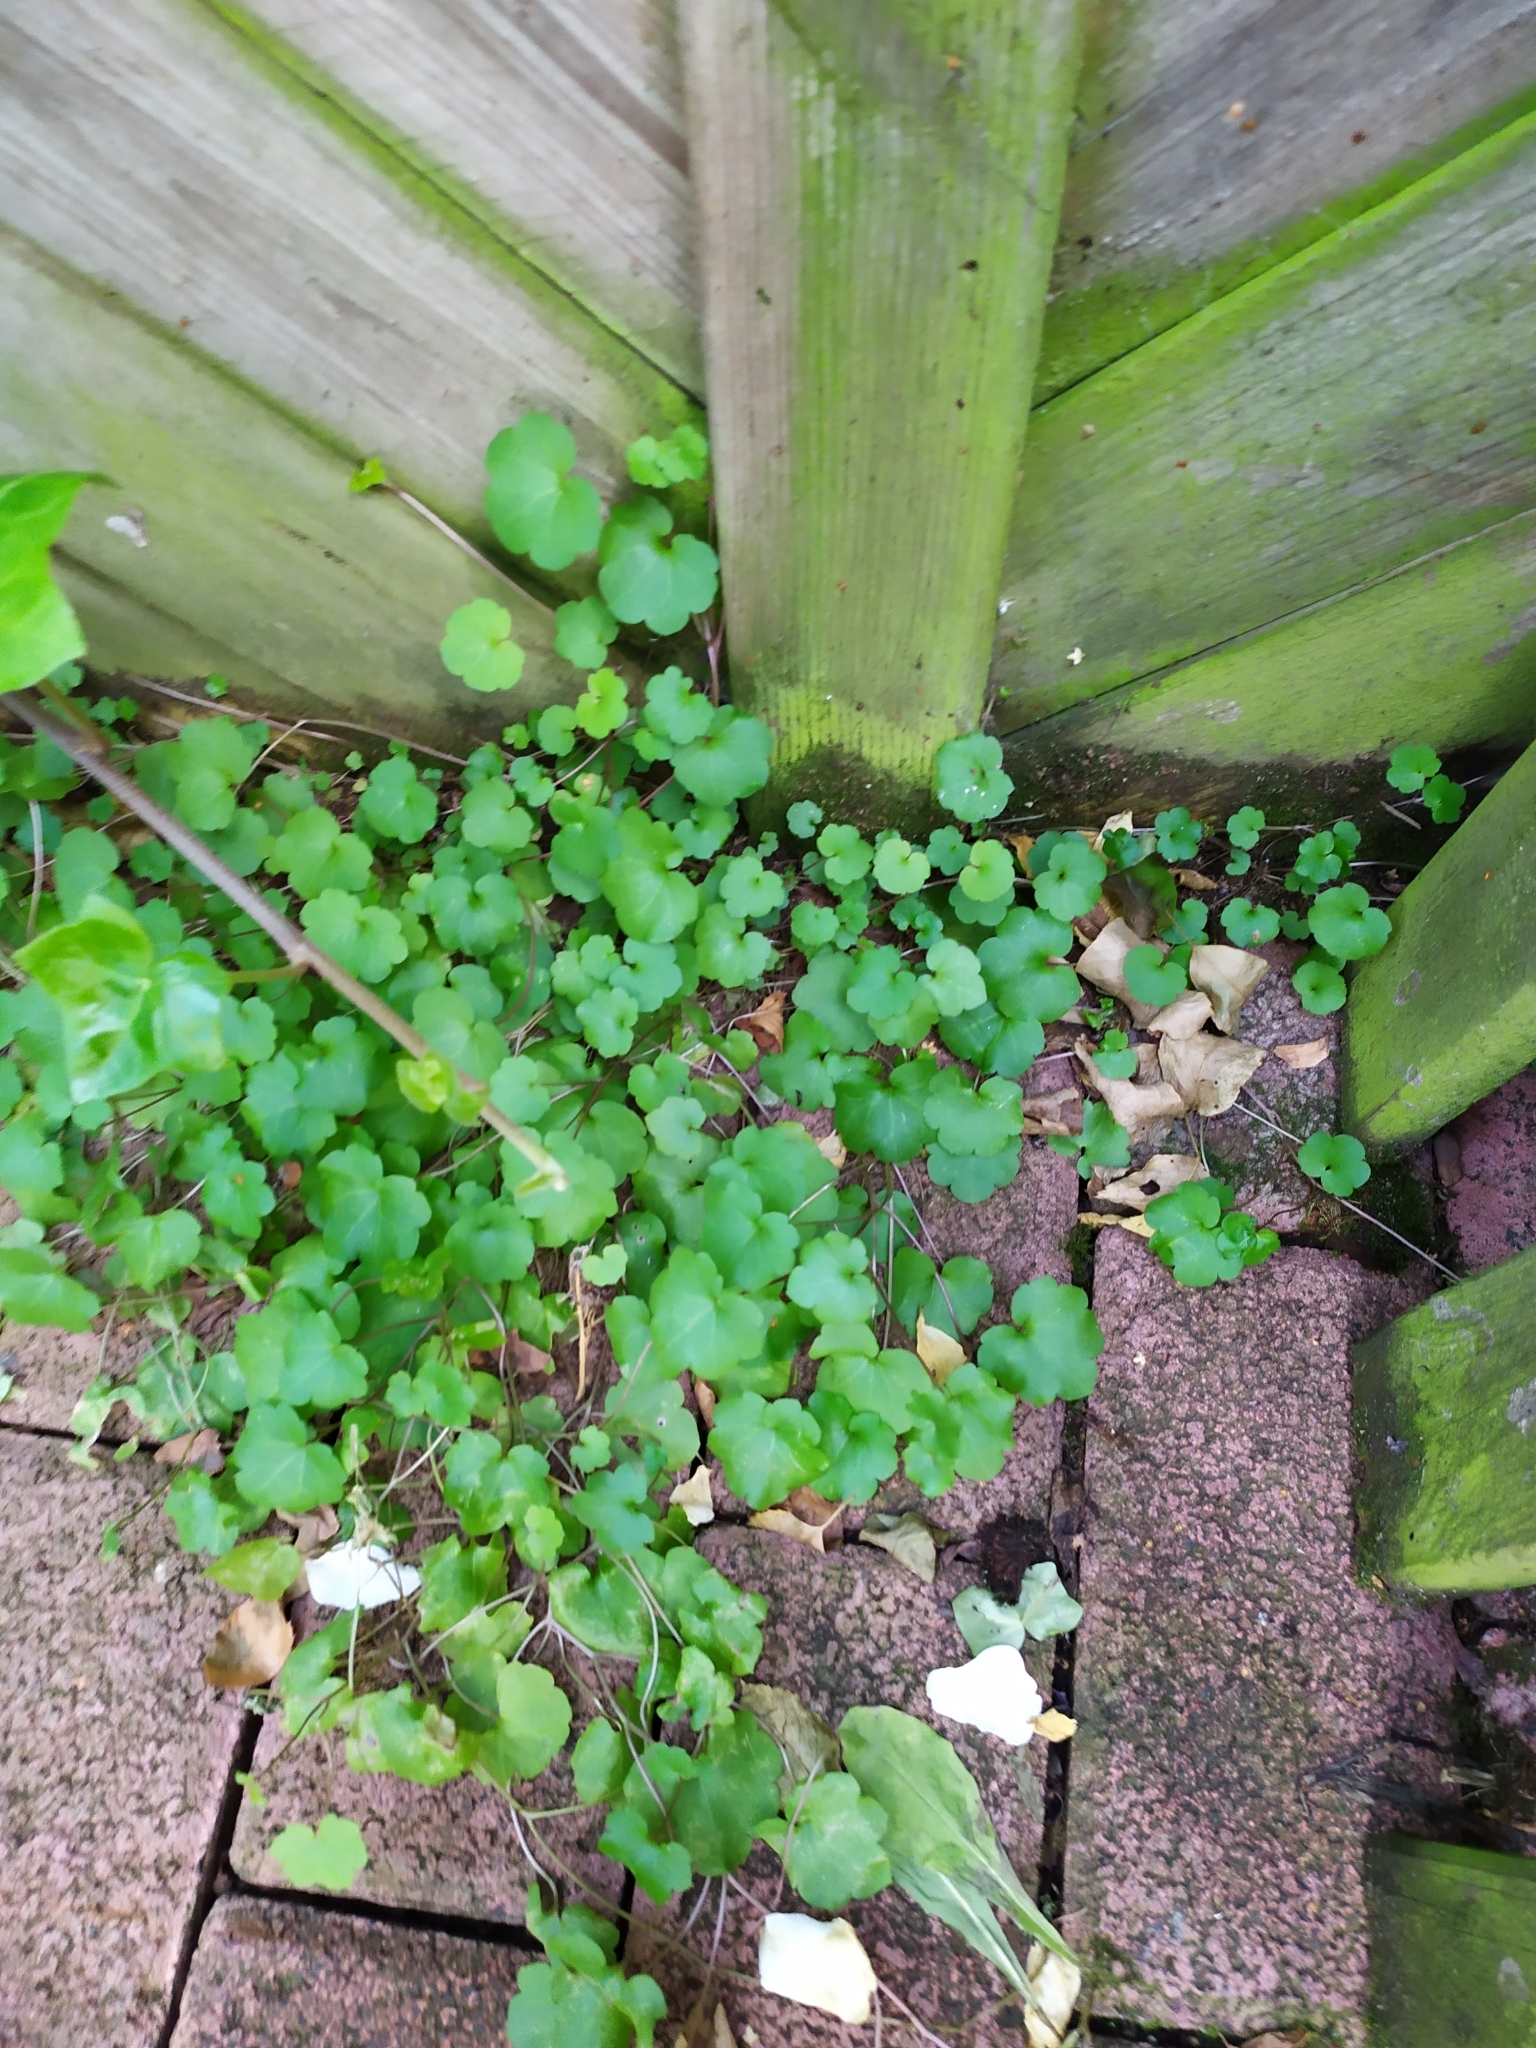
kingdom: Plantae
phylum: Tracheophyta
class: Magnoliopsida
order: Lamiales
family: Plantaginaceae
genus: Cymbalaria
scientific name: Cymbalaria muralis
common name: Ivy-leaved toadflax
